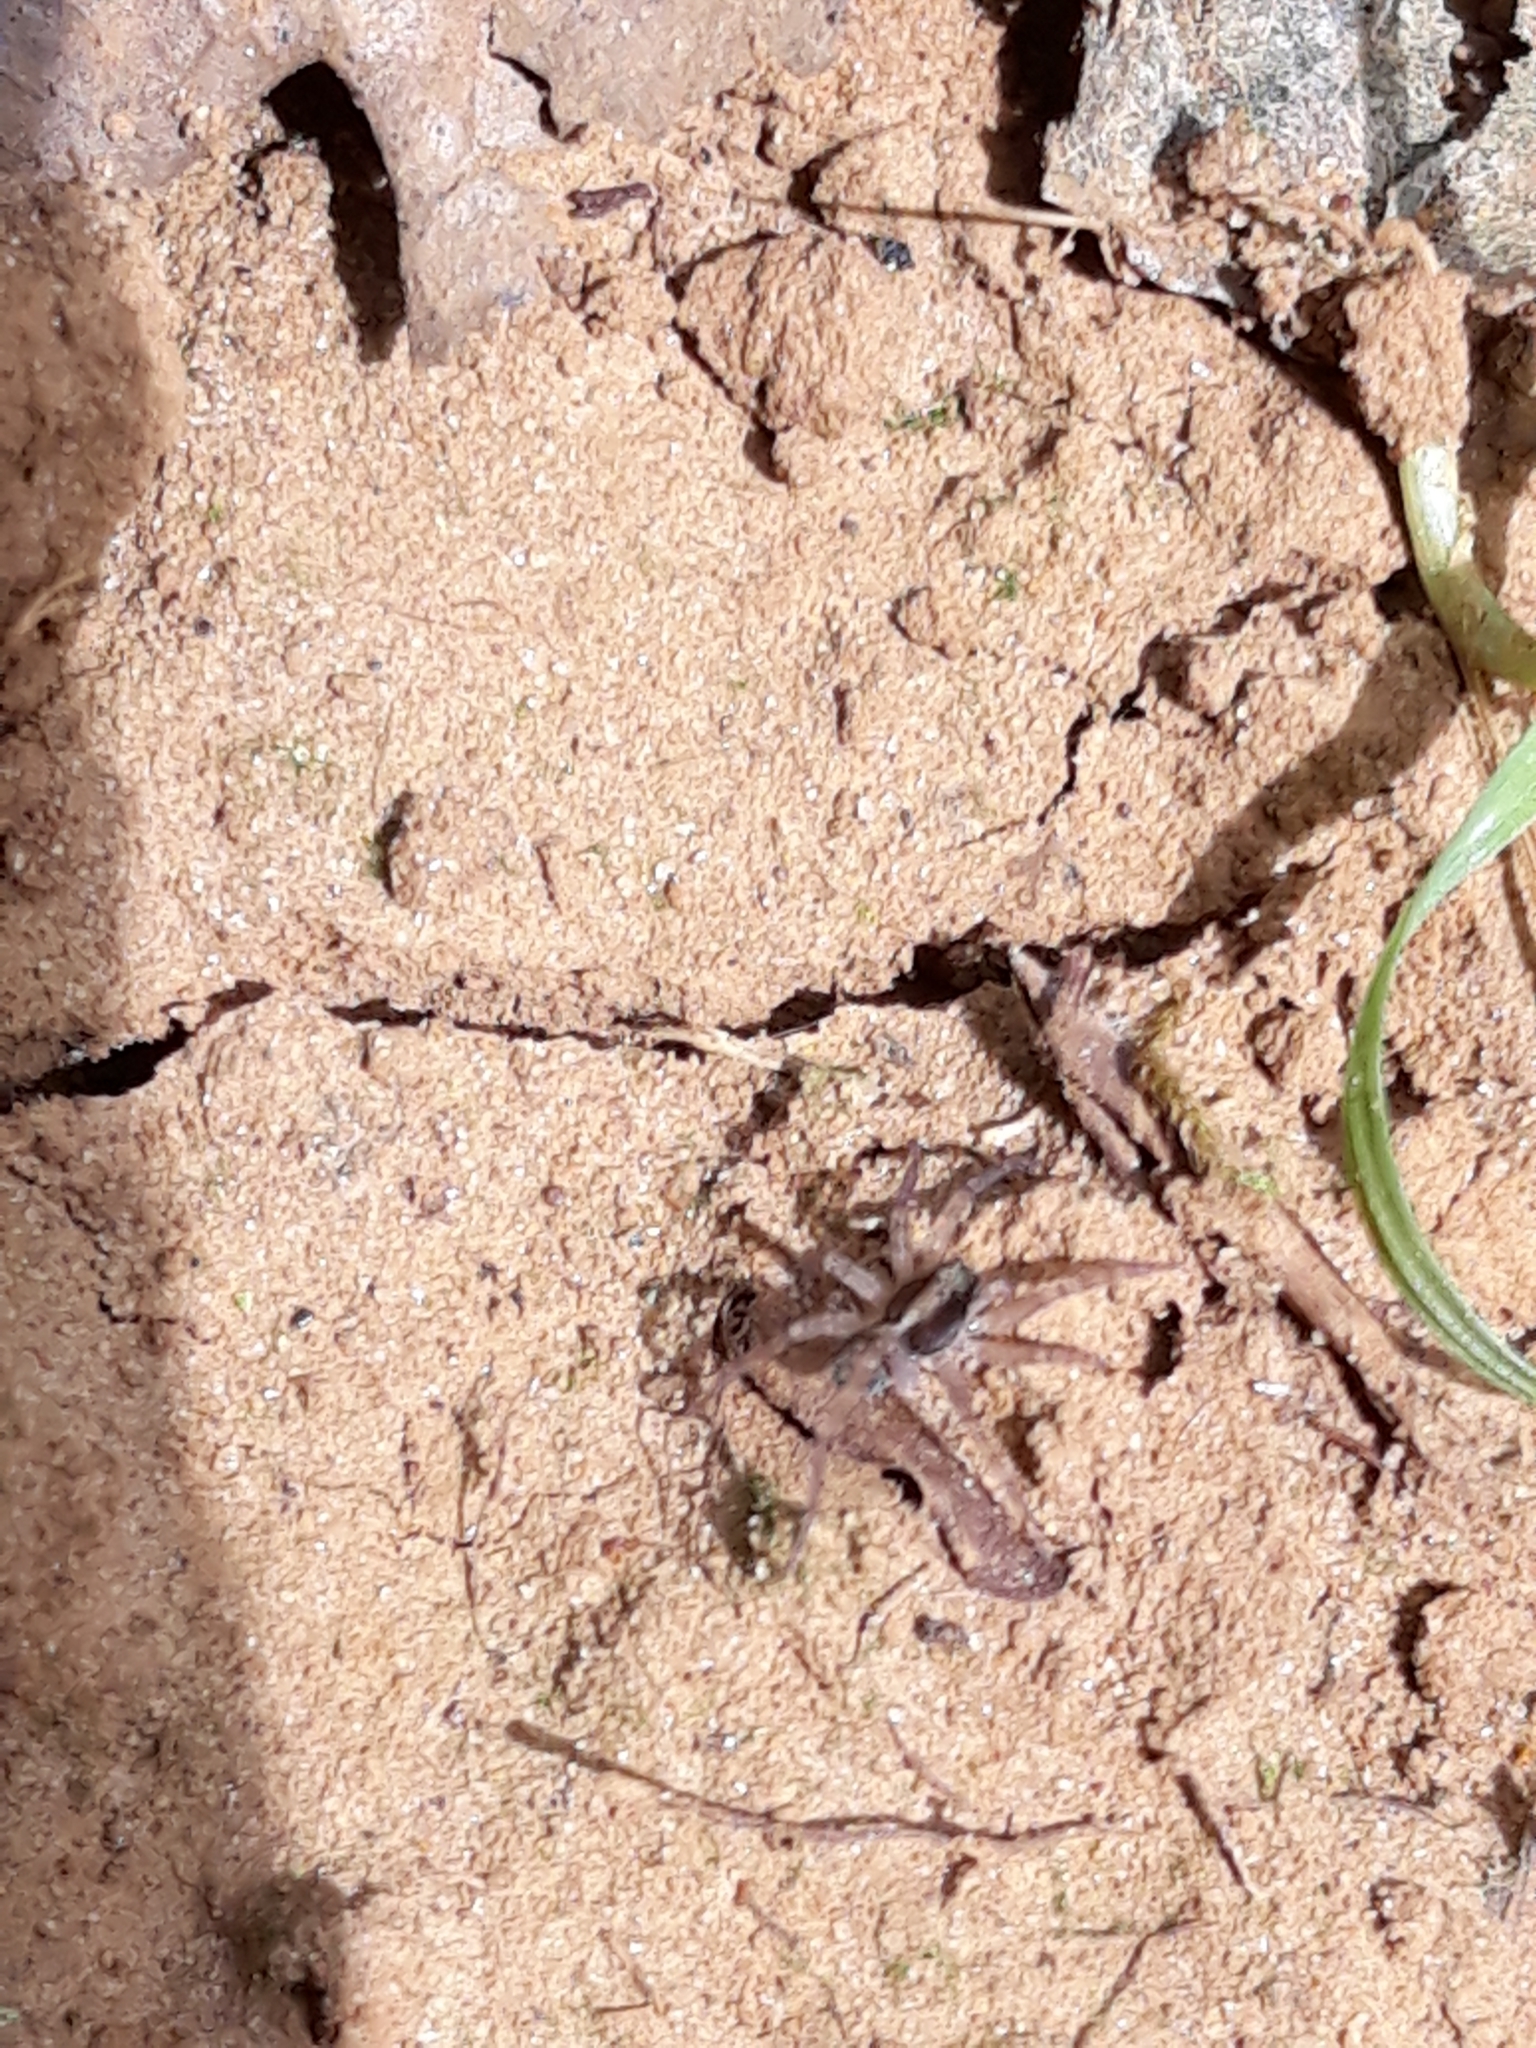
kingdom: Animalia
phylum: Arthropoda
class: Arachnida
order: Araneae
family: Lycosidae
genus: Pardosa
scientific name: Pardosa
